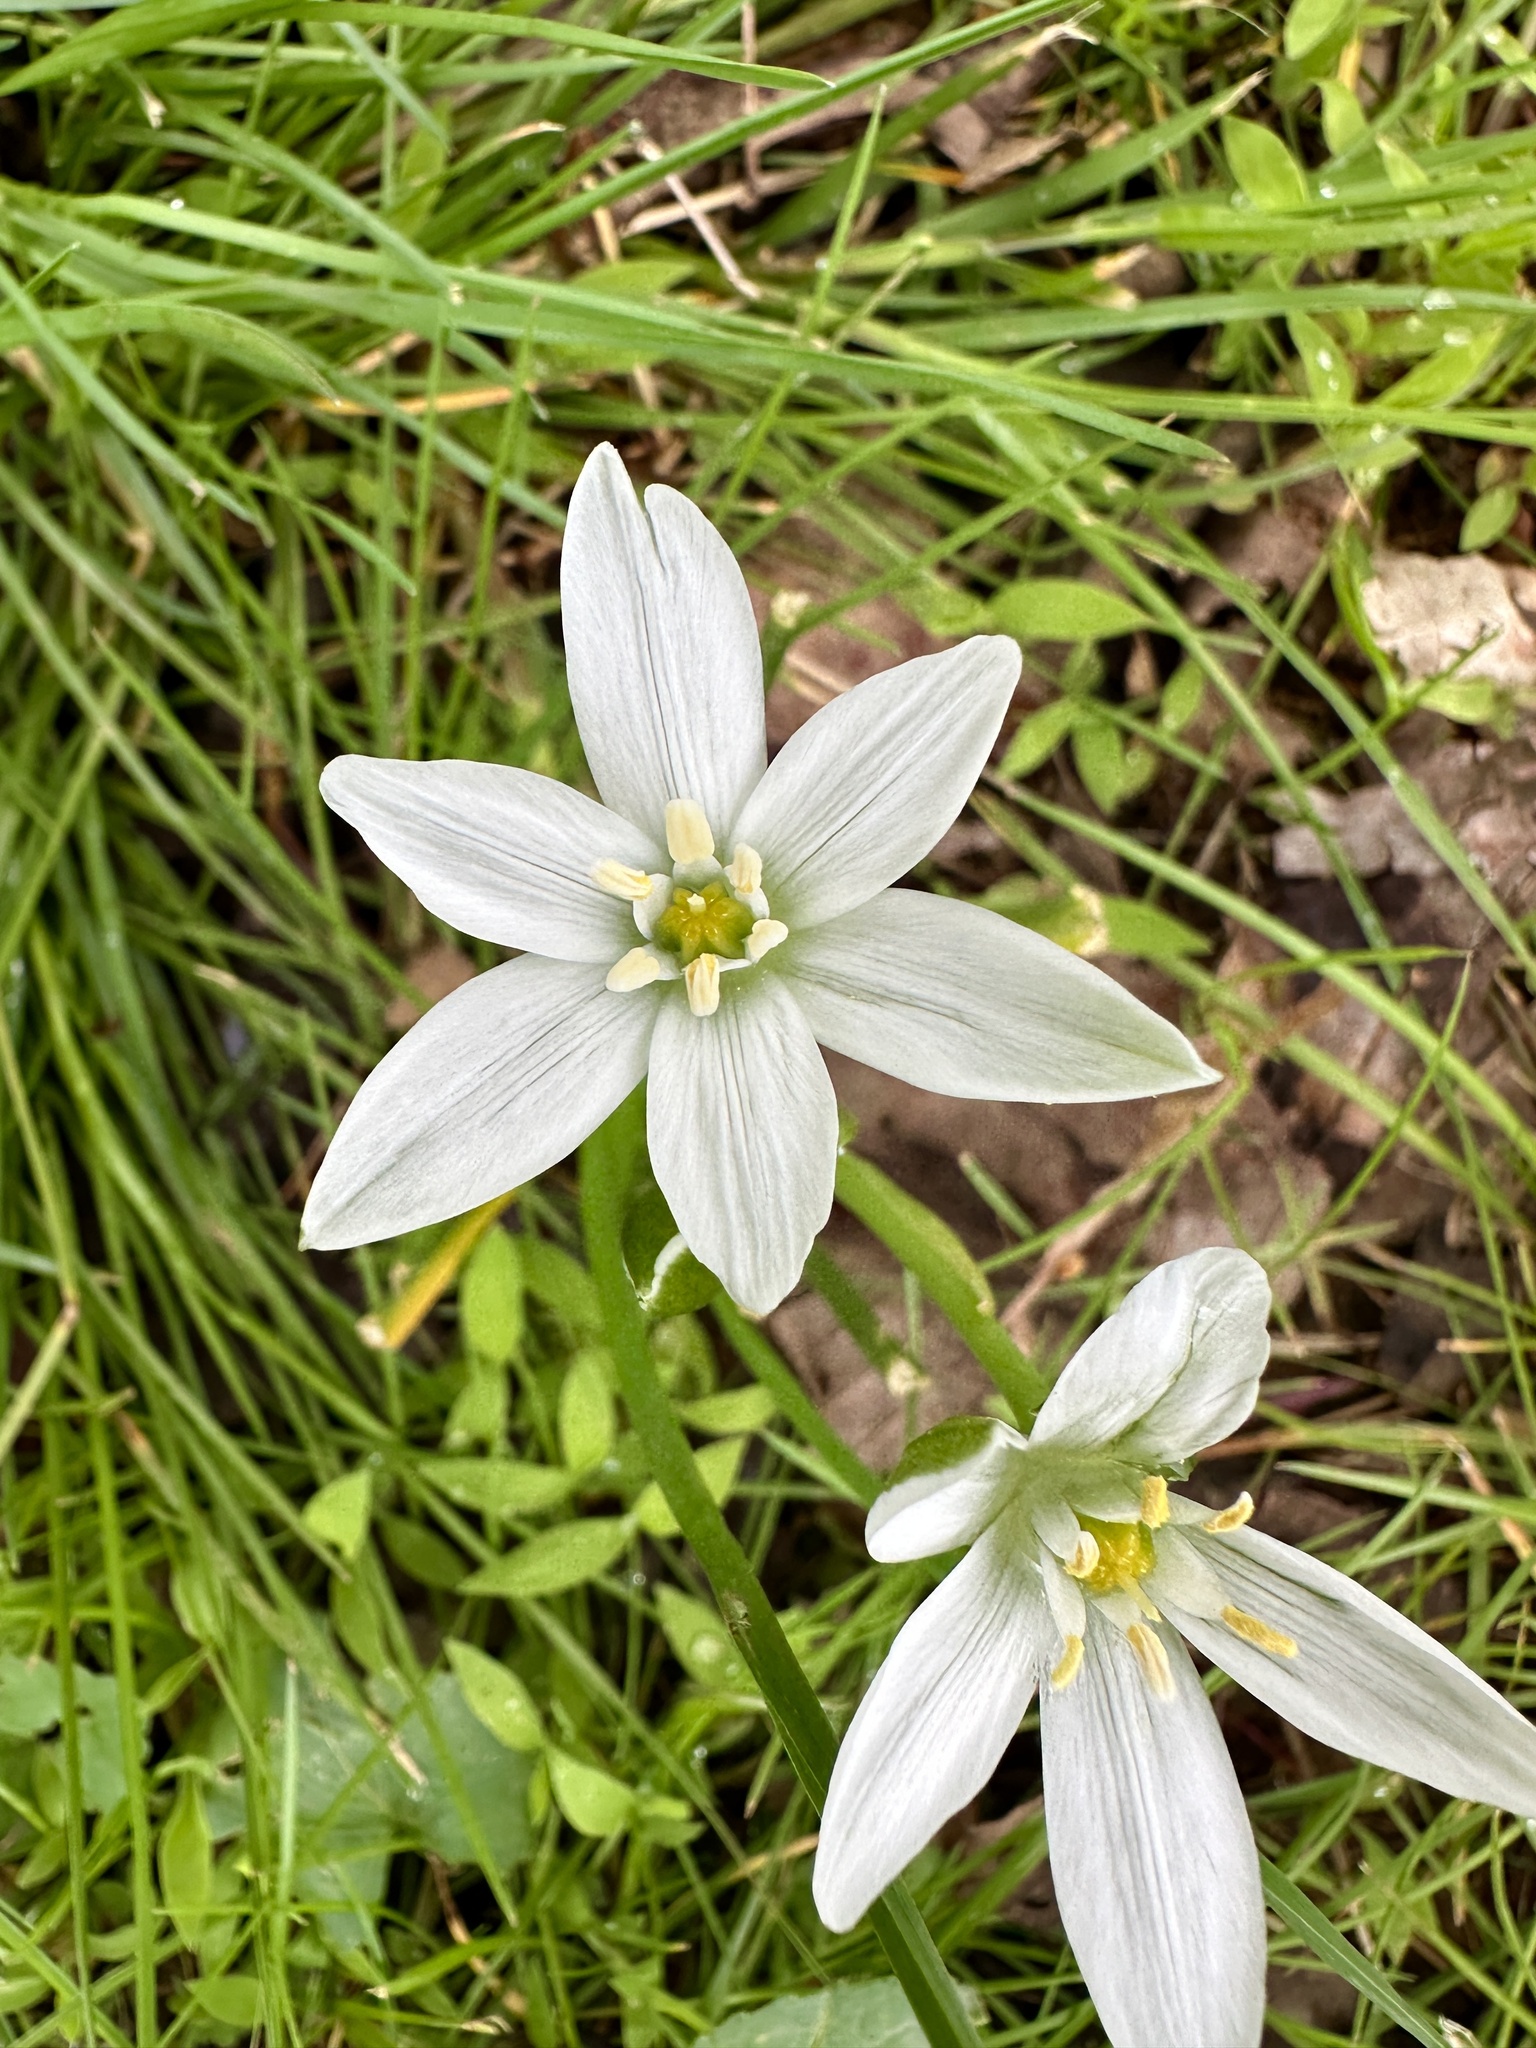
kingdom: Plantae
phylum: Tracheophyta
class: Liliopsida
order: Asparagales
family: Asparagaceae
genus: Ornithogalum
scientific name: Ornithogalum umbellatum
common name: Garden star-of-bethlehem
